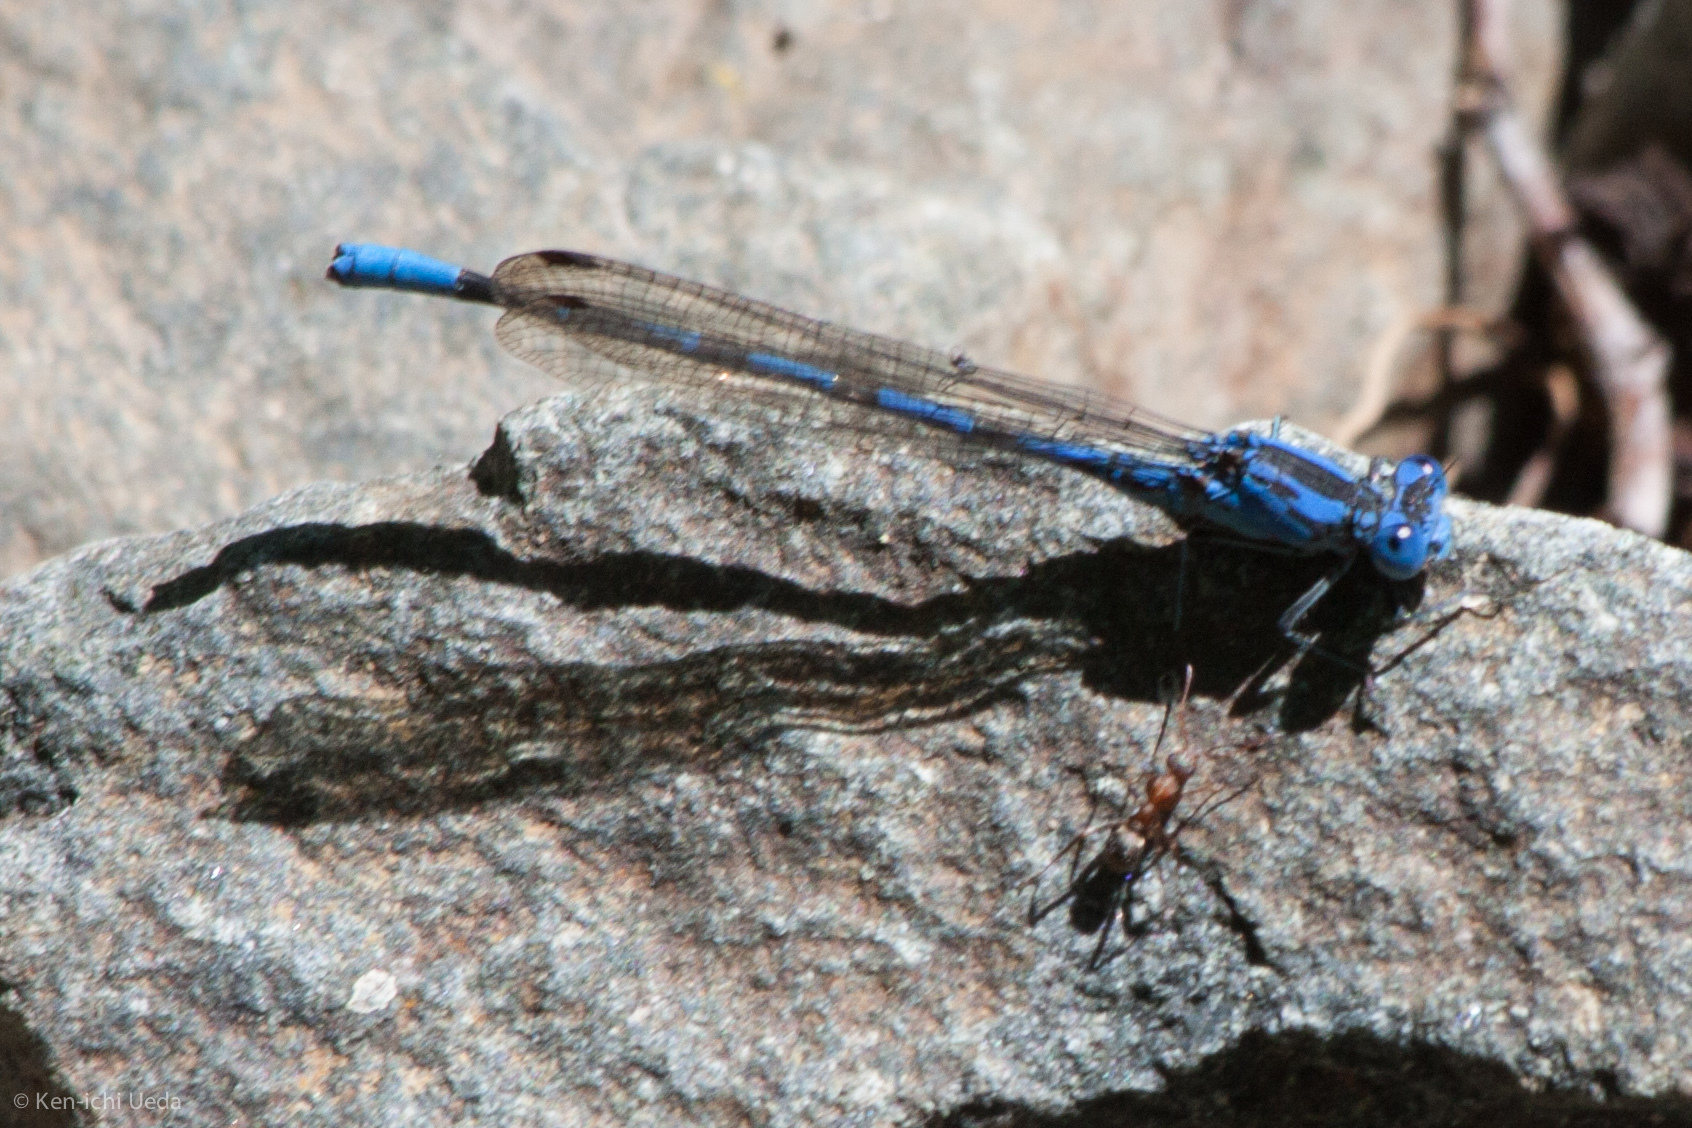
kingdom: Animalia
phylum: Arthropoda
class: Insecta
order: Odonata
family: Coenagrionidae
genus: Argia
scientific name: Argia vivida
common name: Vivid dancer
